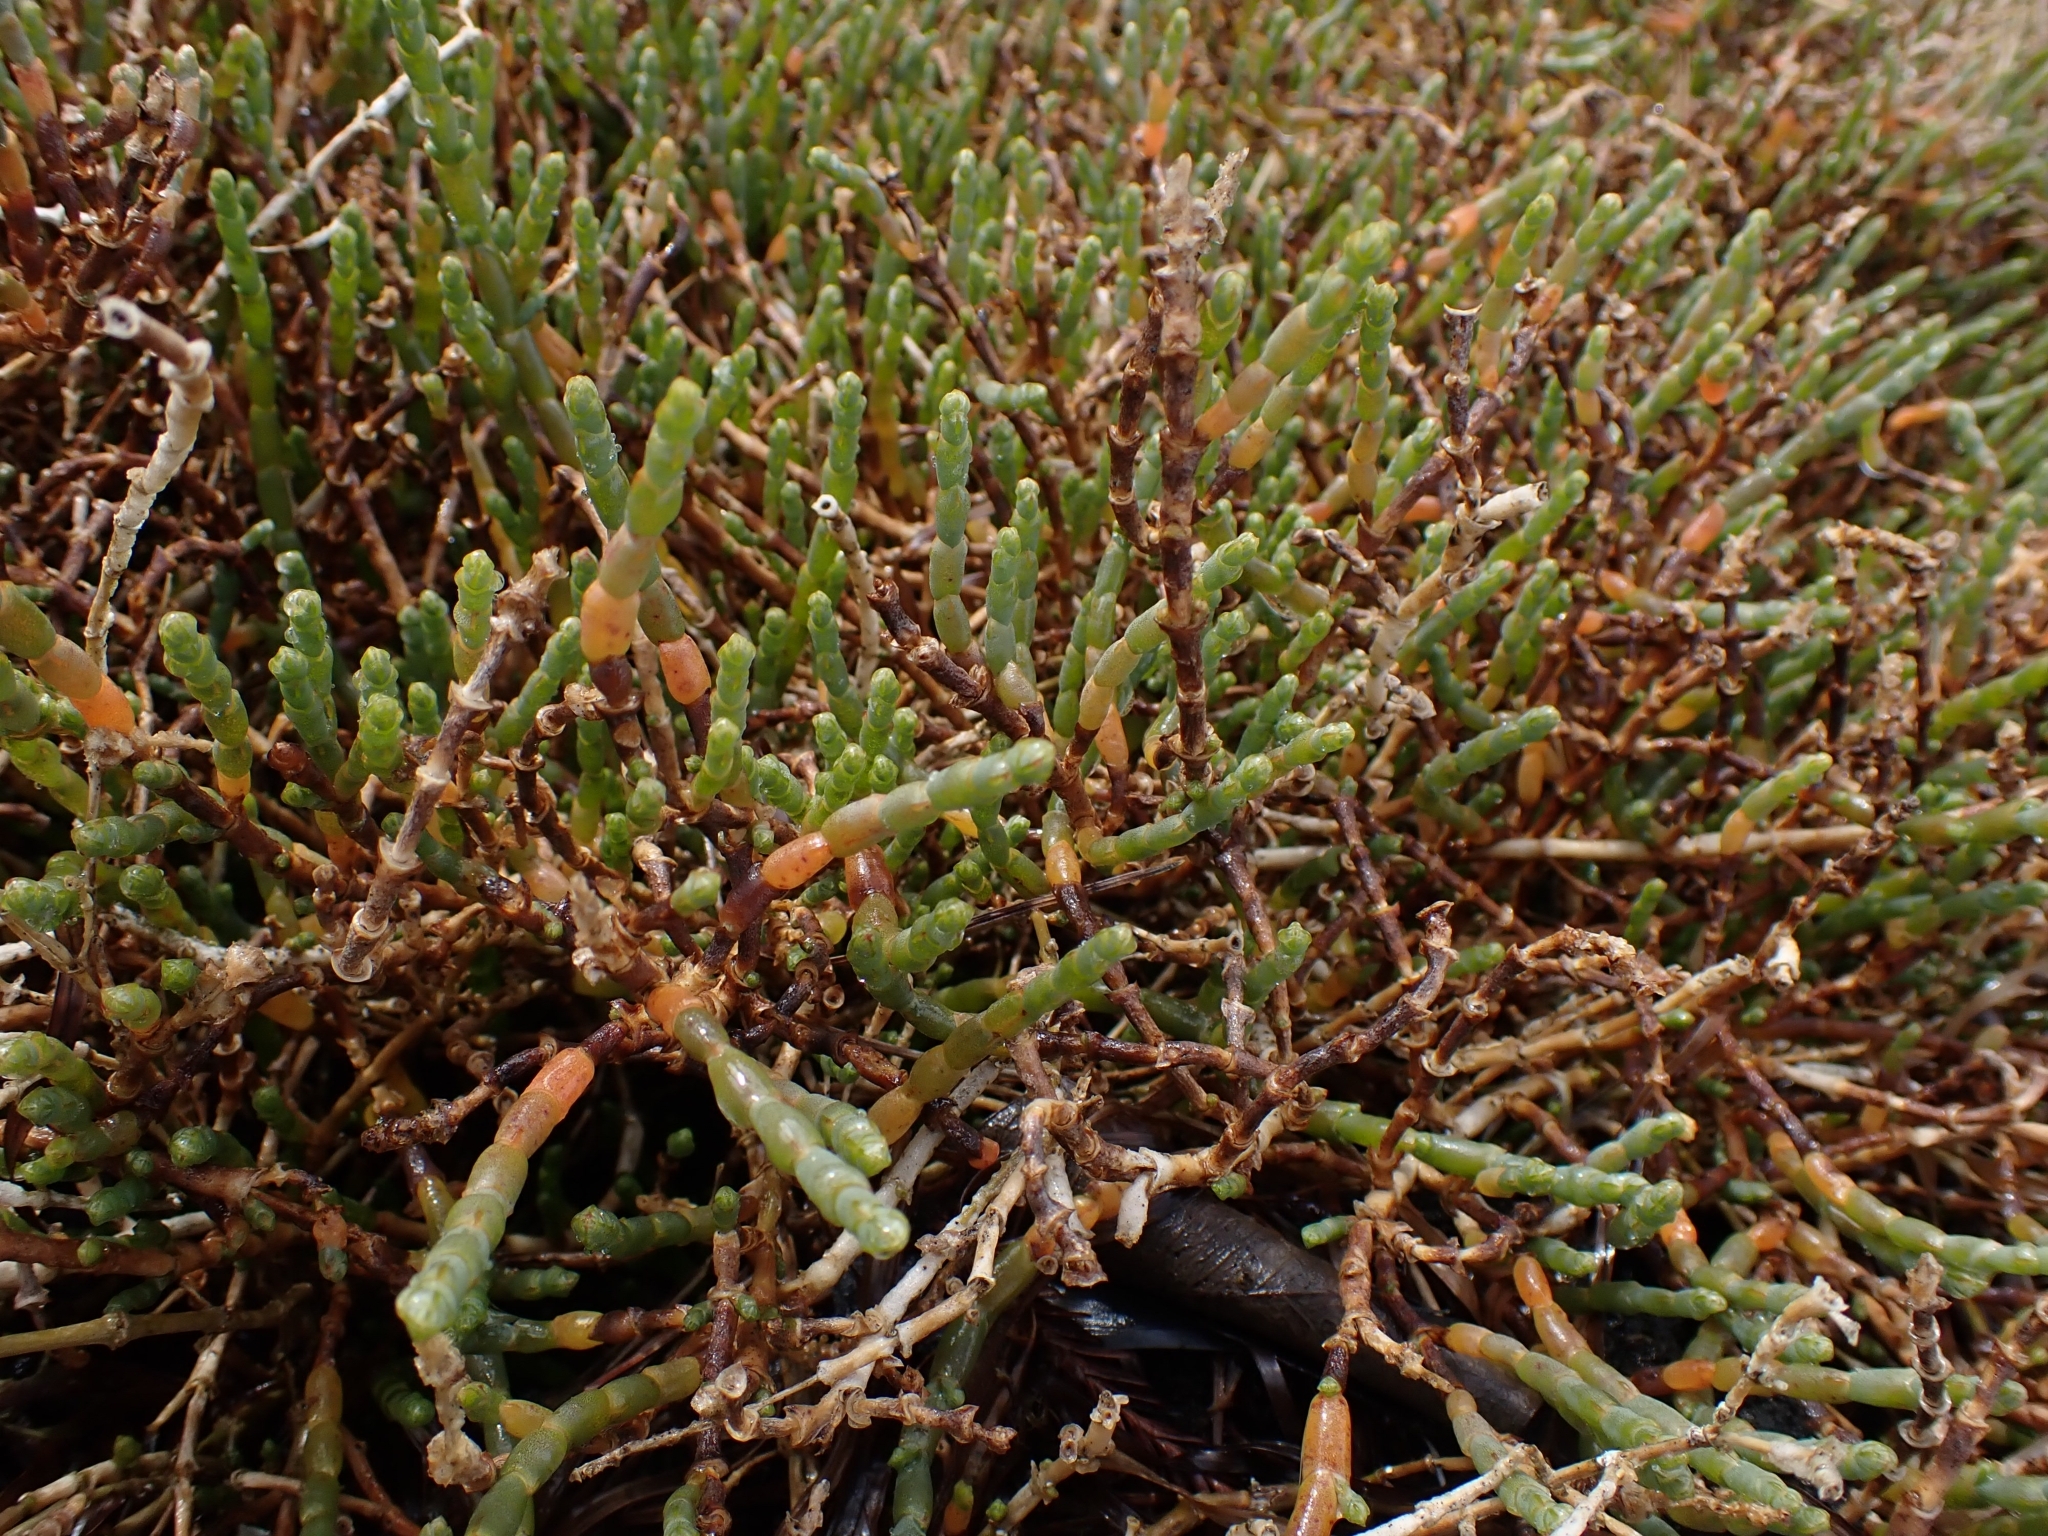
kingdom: Plantae
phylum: Tracheophyta
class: Magnoliopsida
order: Caryophyllales
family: Amaranthaceae
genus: Salicornia
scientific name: Salicornia quinqueflora
